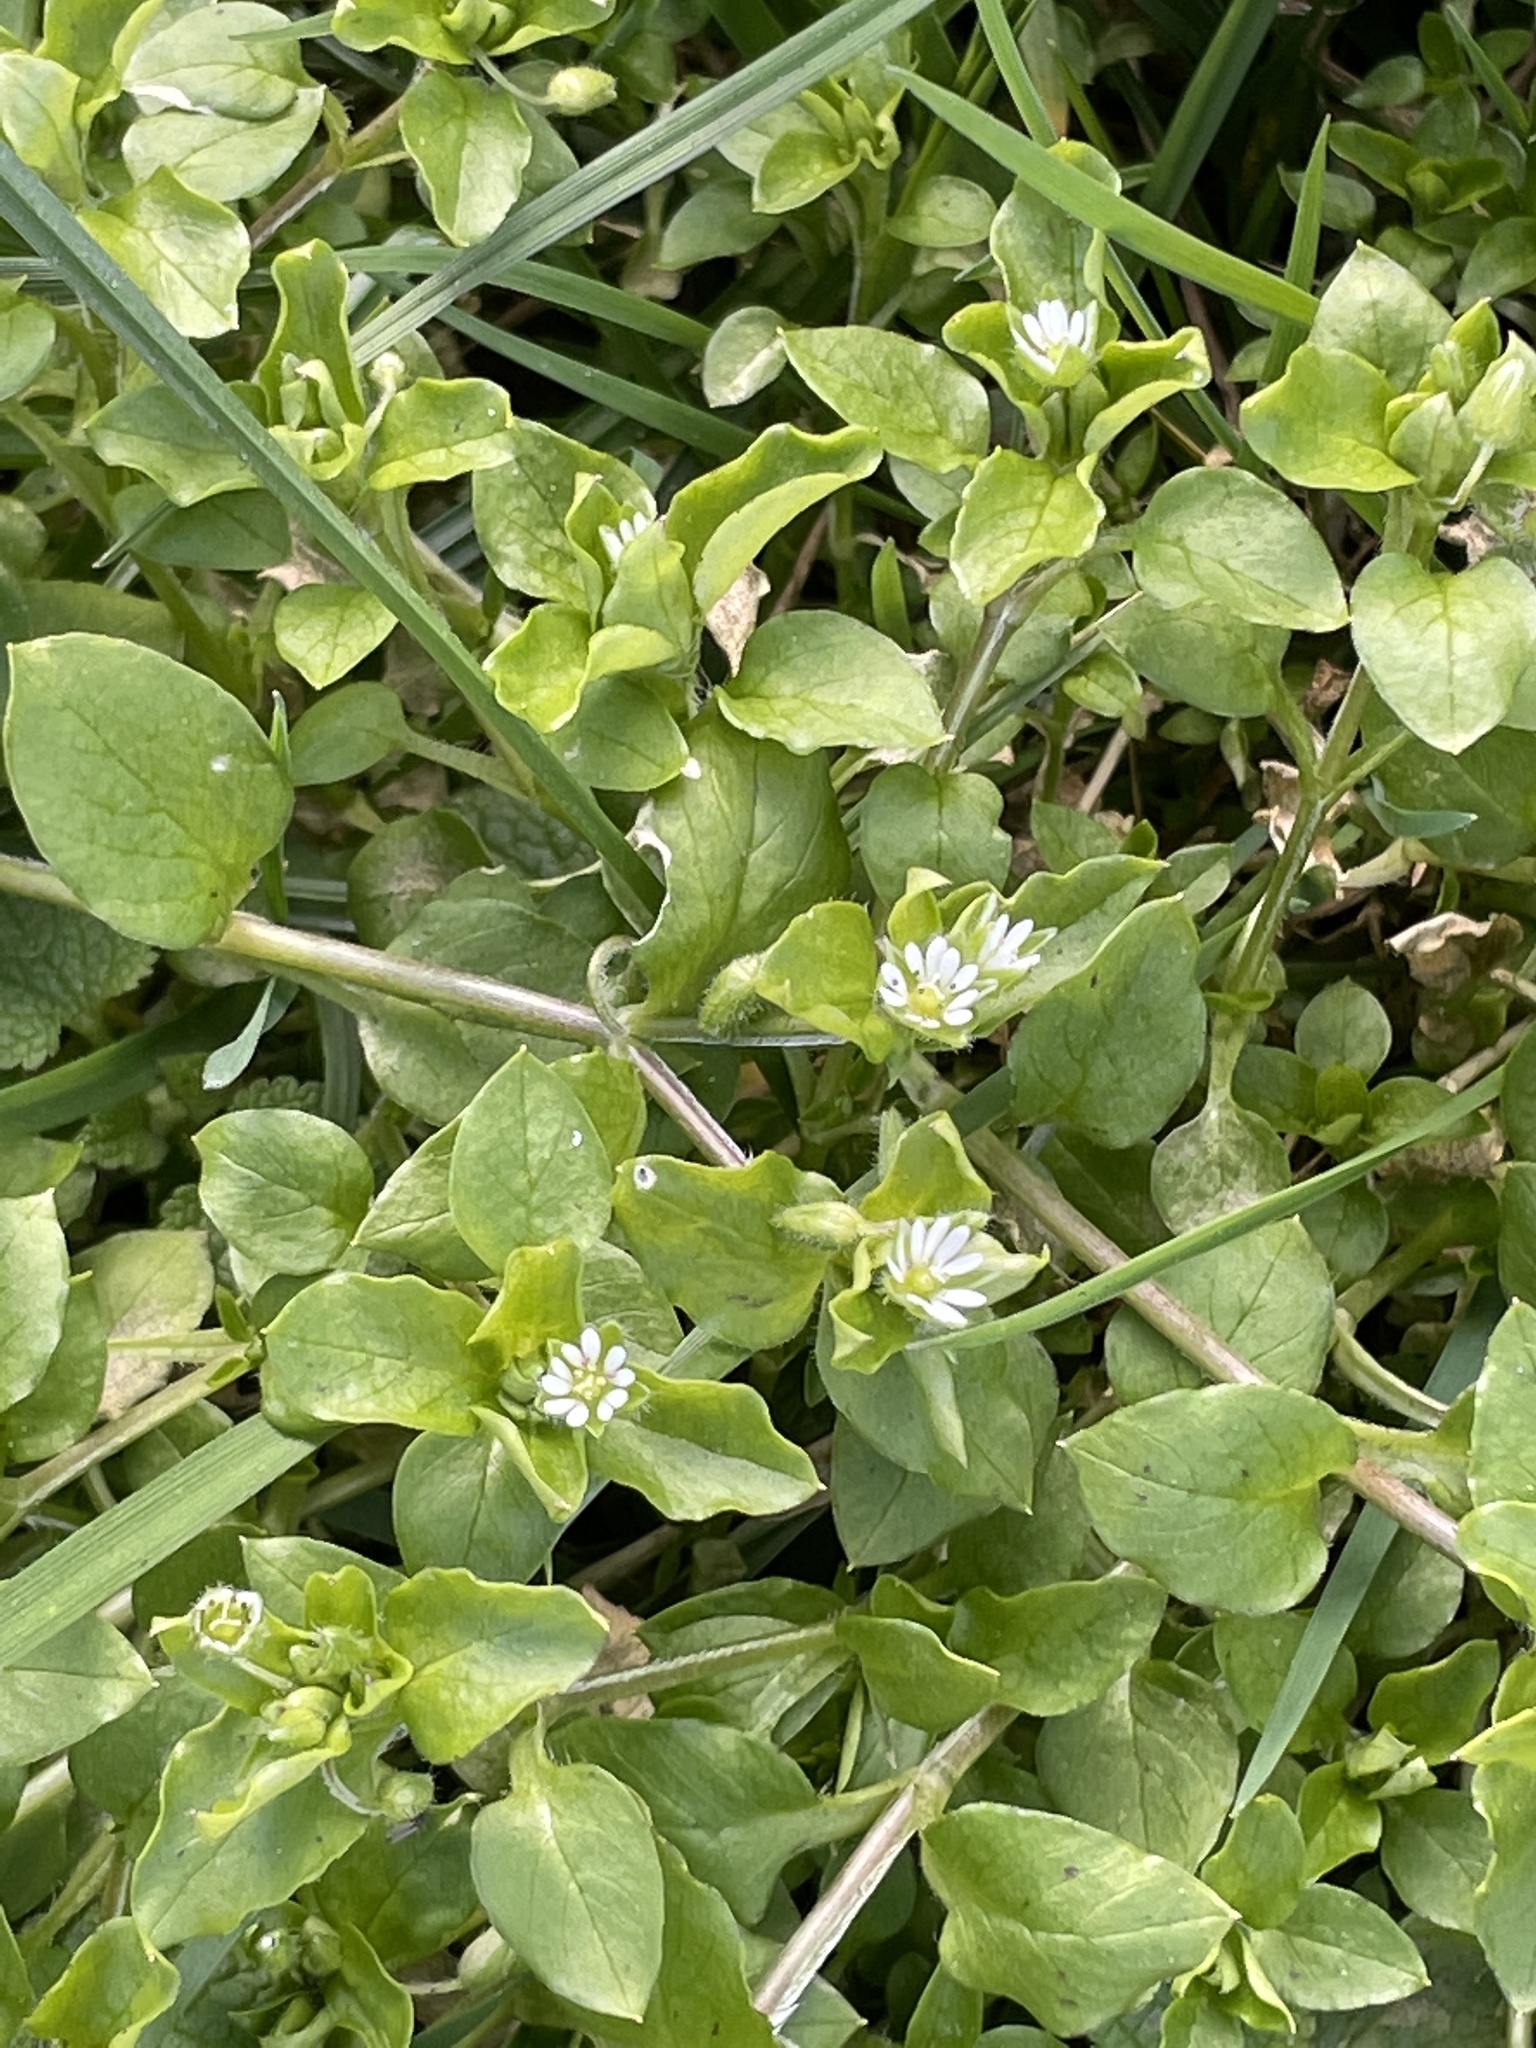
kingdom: Plantae
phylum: Tracheophyta
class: Magnoliopsida
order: Caryophyllales
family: Caryophyllaceae
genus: Stellaria
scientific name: Stellaria media
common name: Common chickweed
